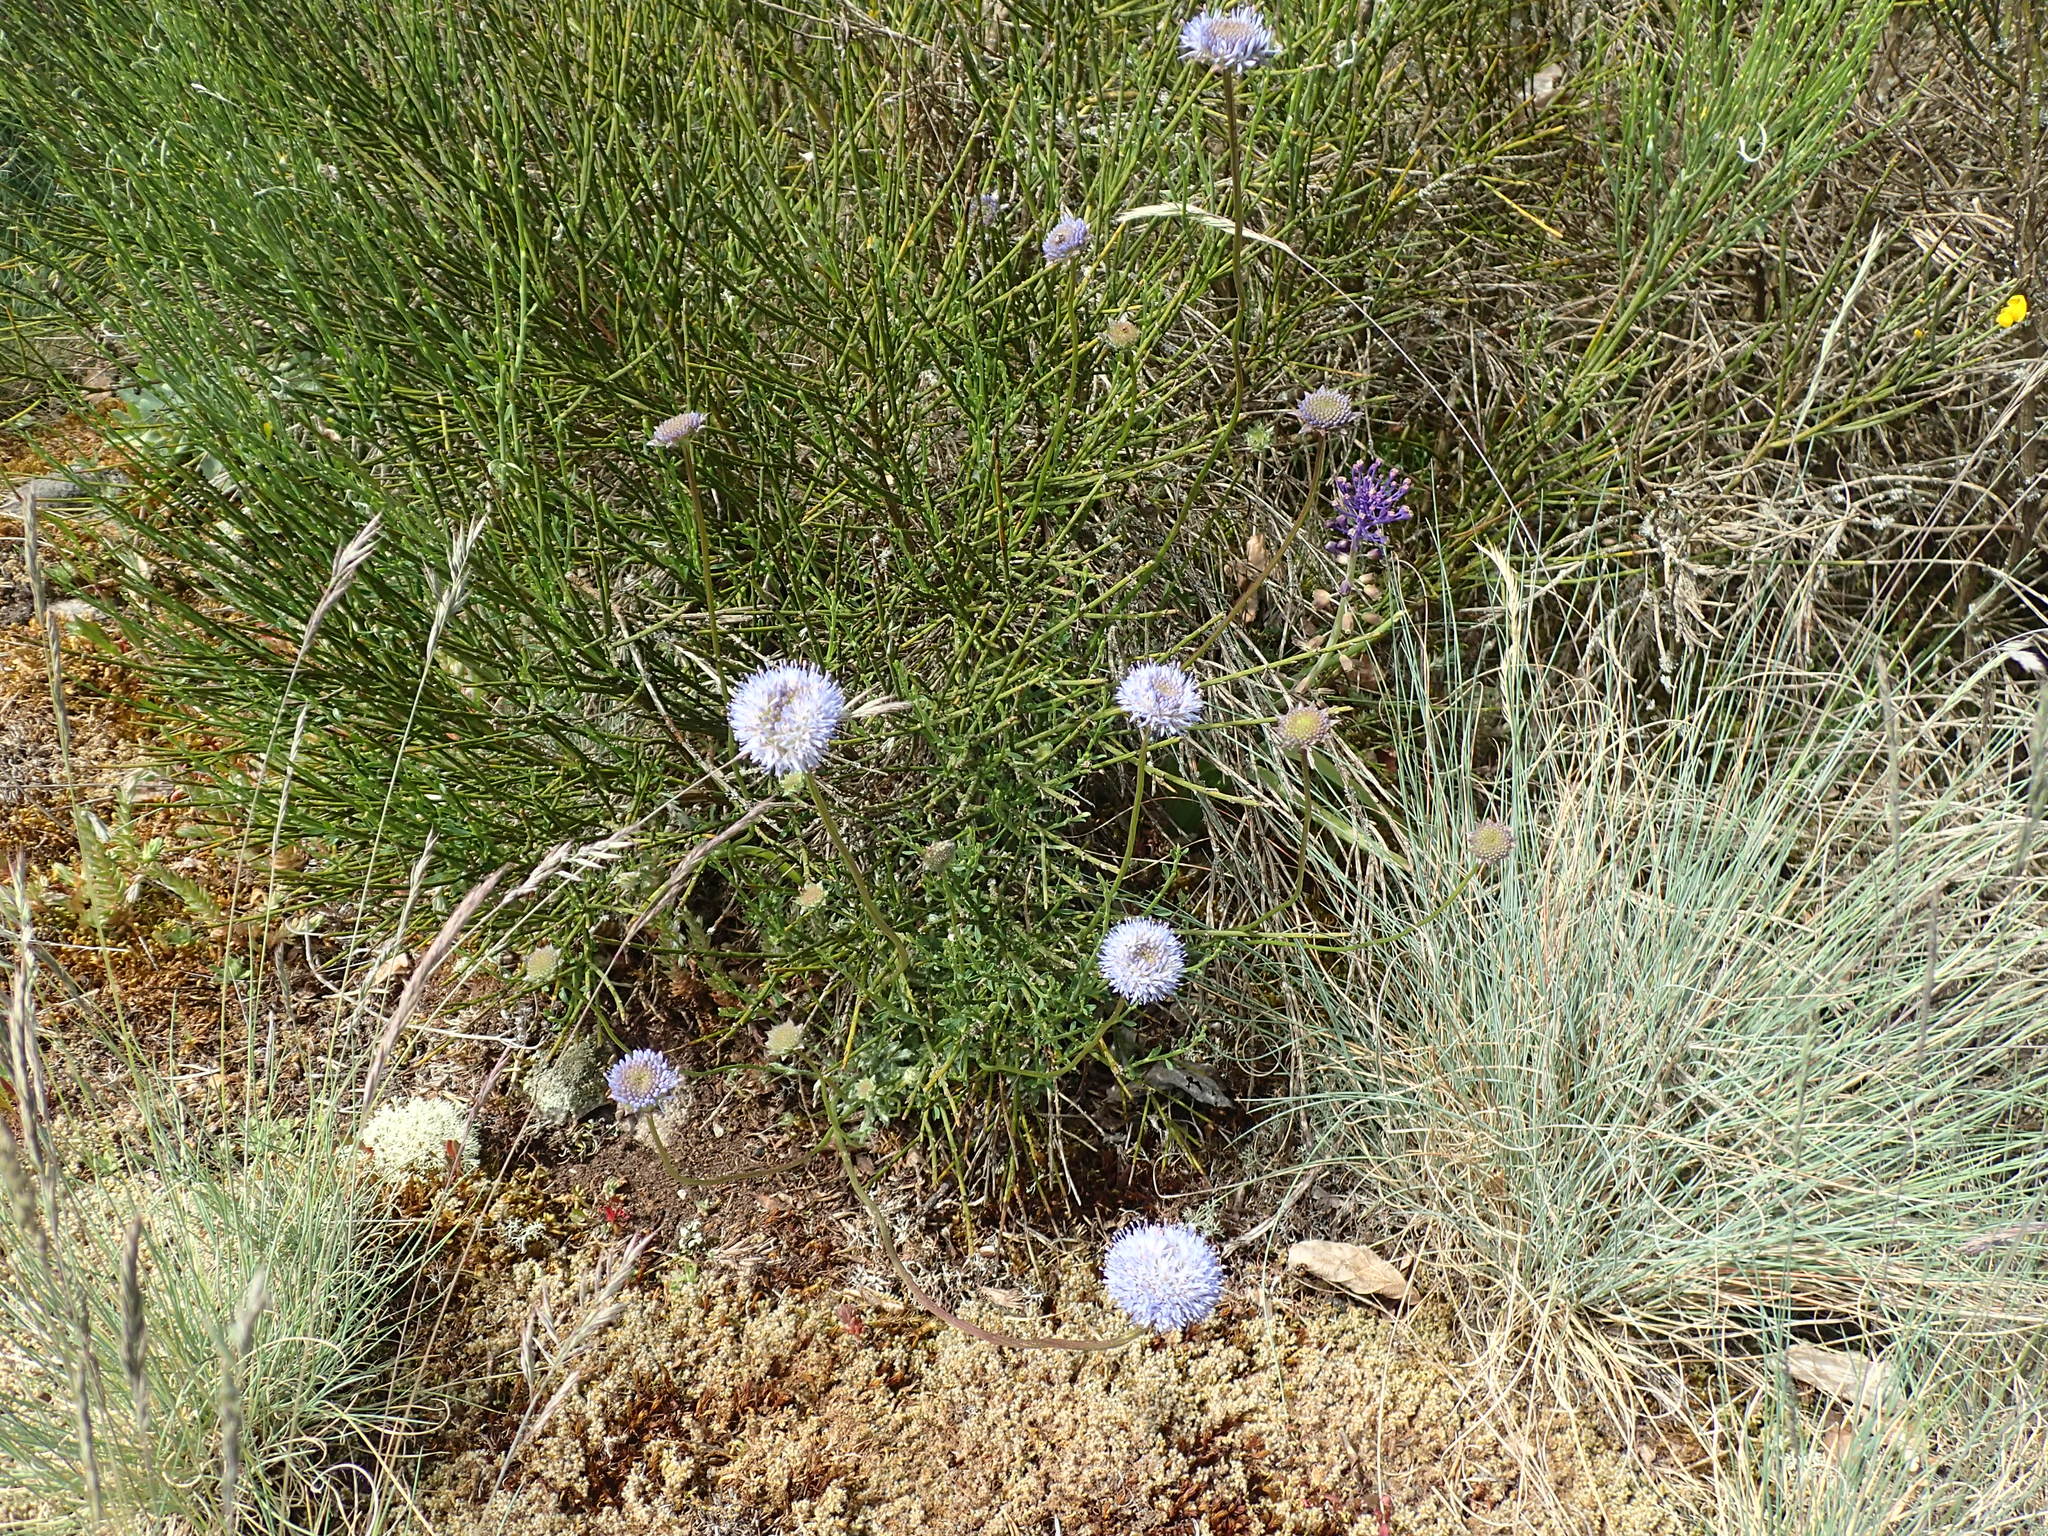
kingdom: Plantae
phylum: Tracheophyta
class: Magnoliopsida
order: Asterales
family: Campanulaceae
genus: Jasione
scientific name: Jasione montana
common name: Sheep's-bit
